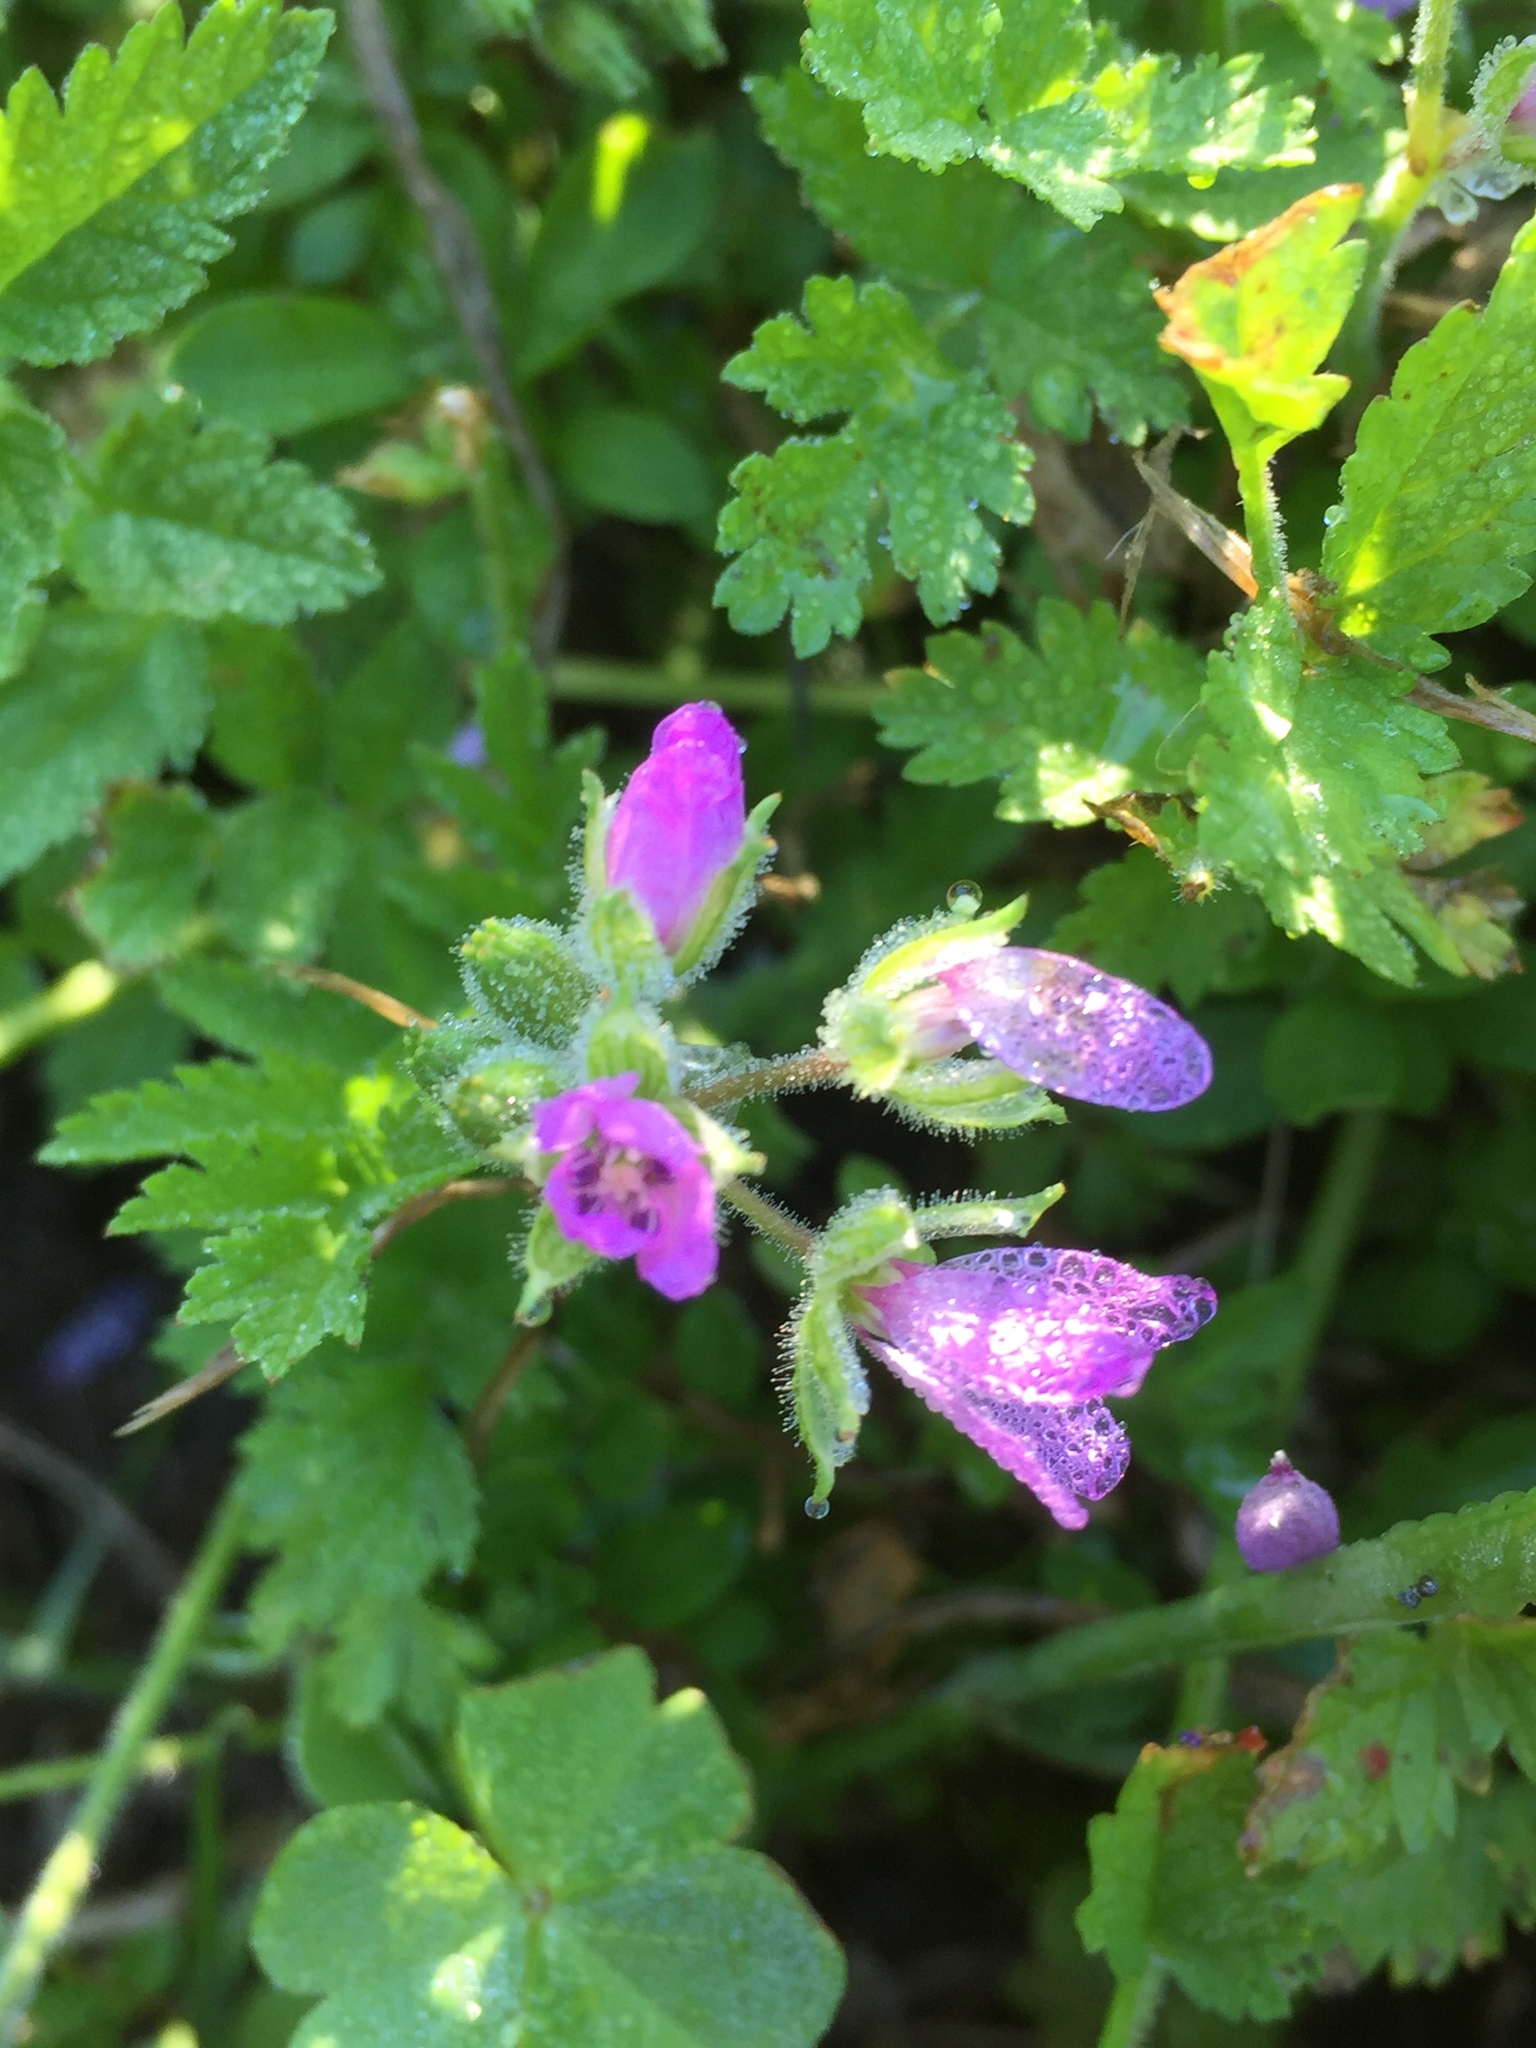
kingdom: Plantae
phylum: Tracheophyta
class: Magnoliopsida
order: Geraniales
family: Geraniaceae
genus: Erodium
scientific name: Erodium moschatum
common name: Musk stork's-bill
